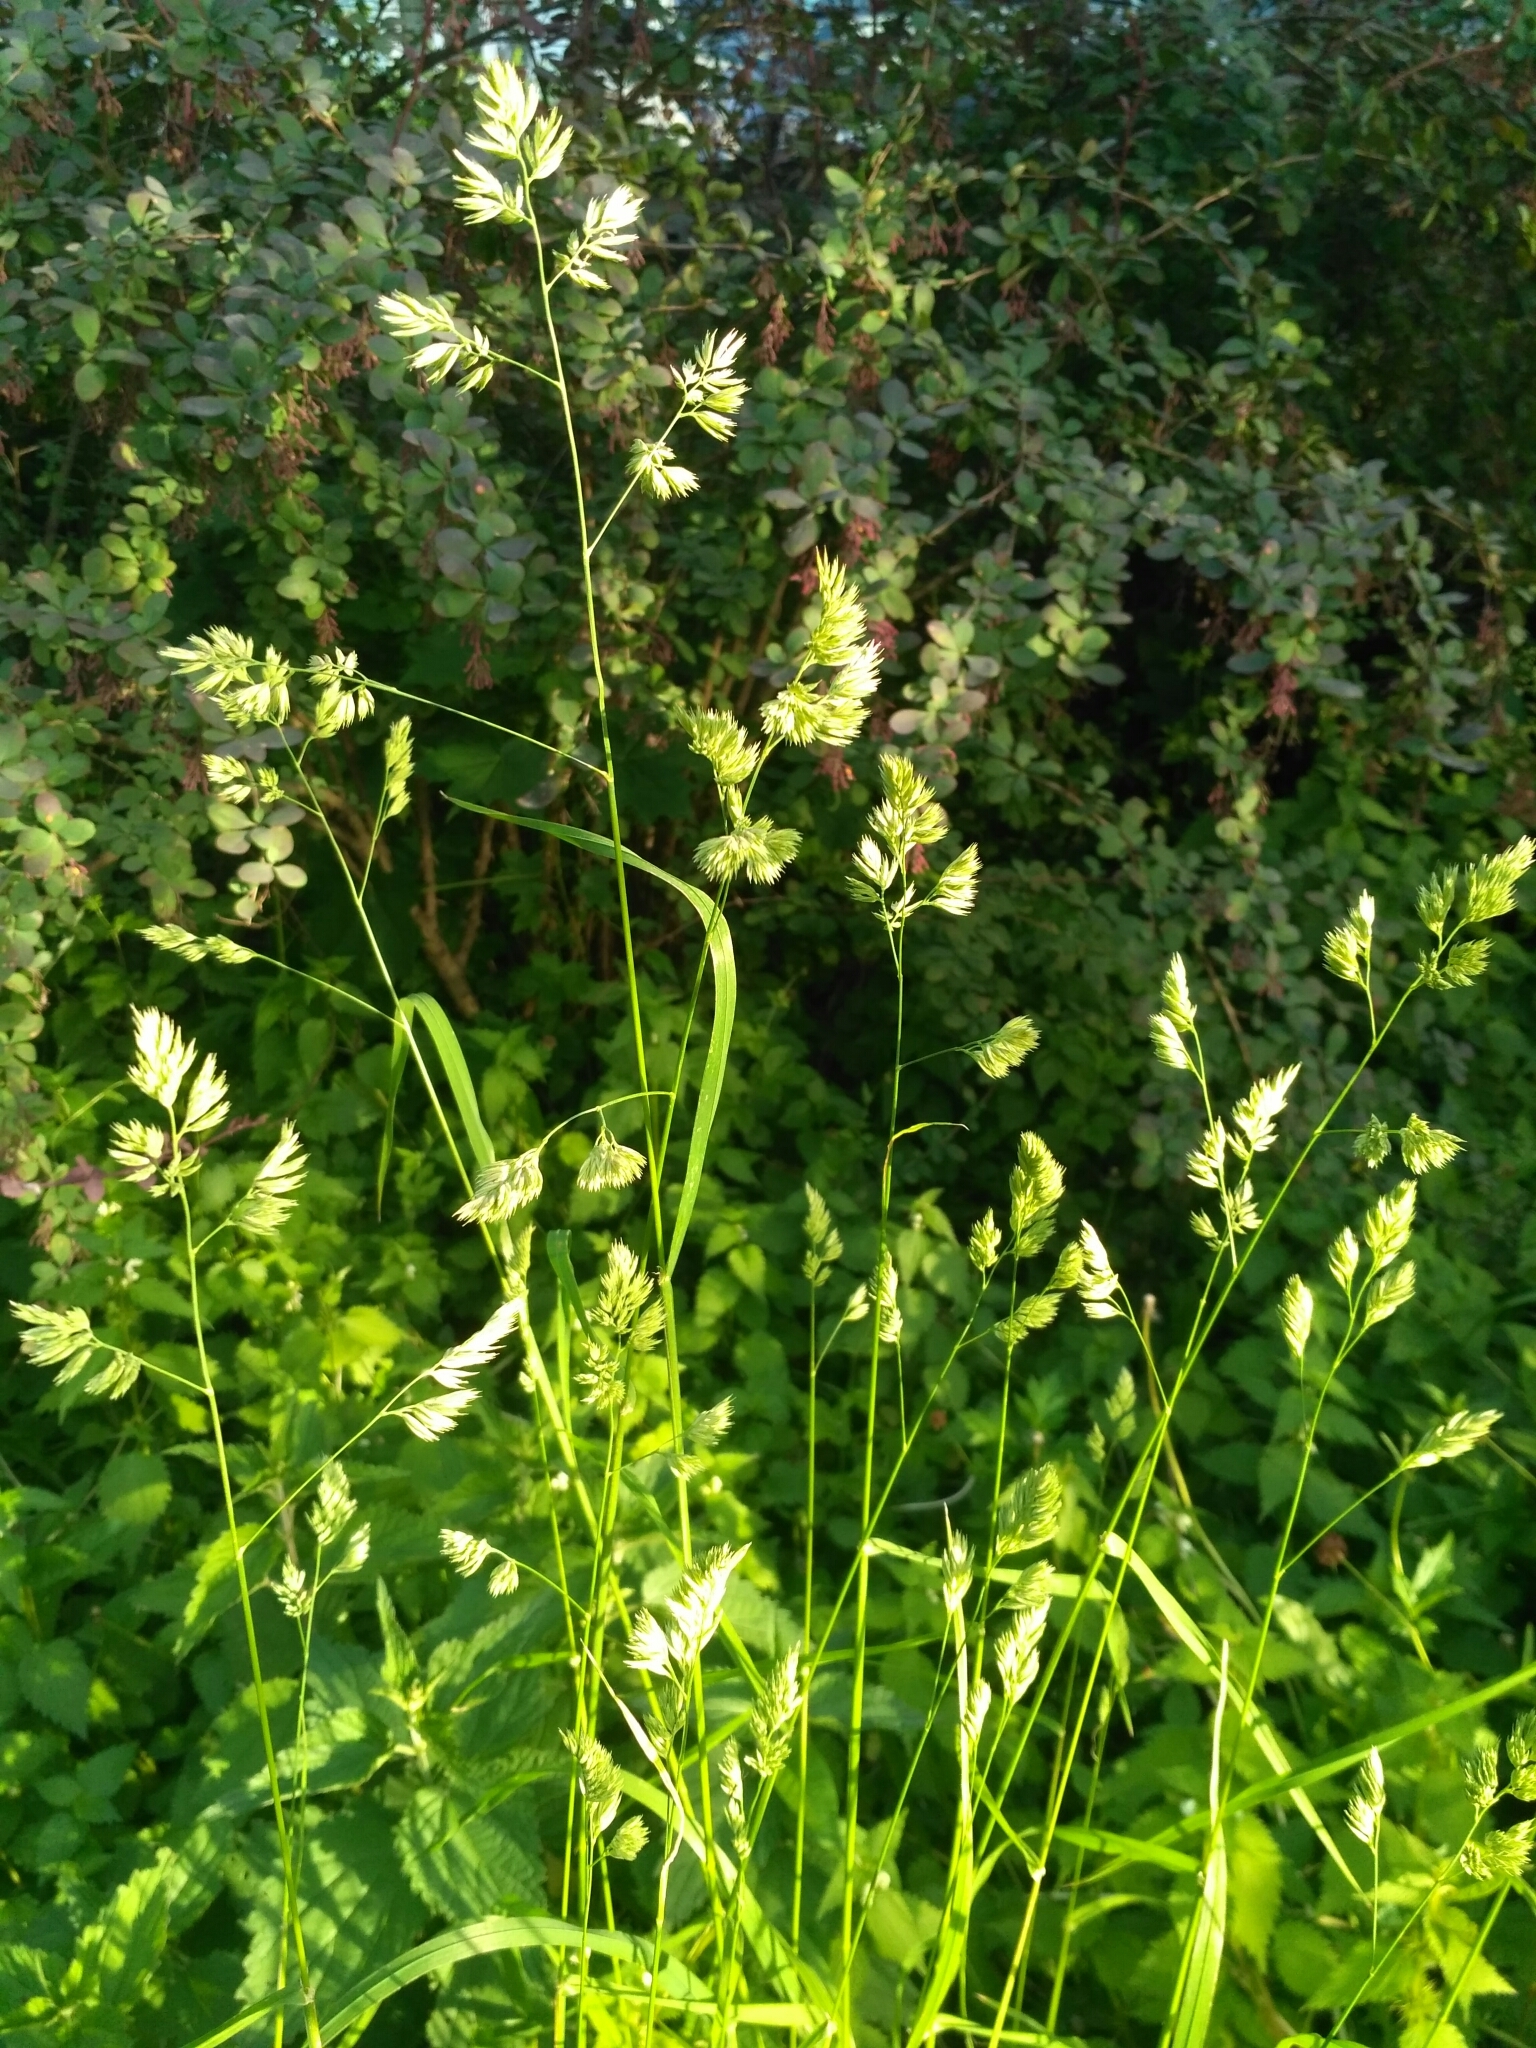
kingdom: Plantae
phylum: Tracheophyta
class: Liliopsida
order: Poales
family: Poaceae
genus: Dactylis
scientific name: Dactylis glomerata
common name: Orchardgrass
